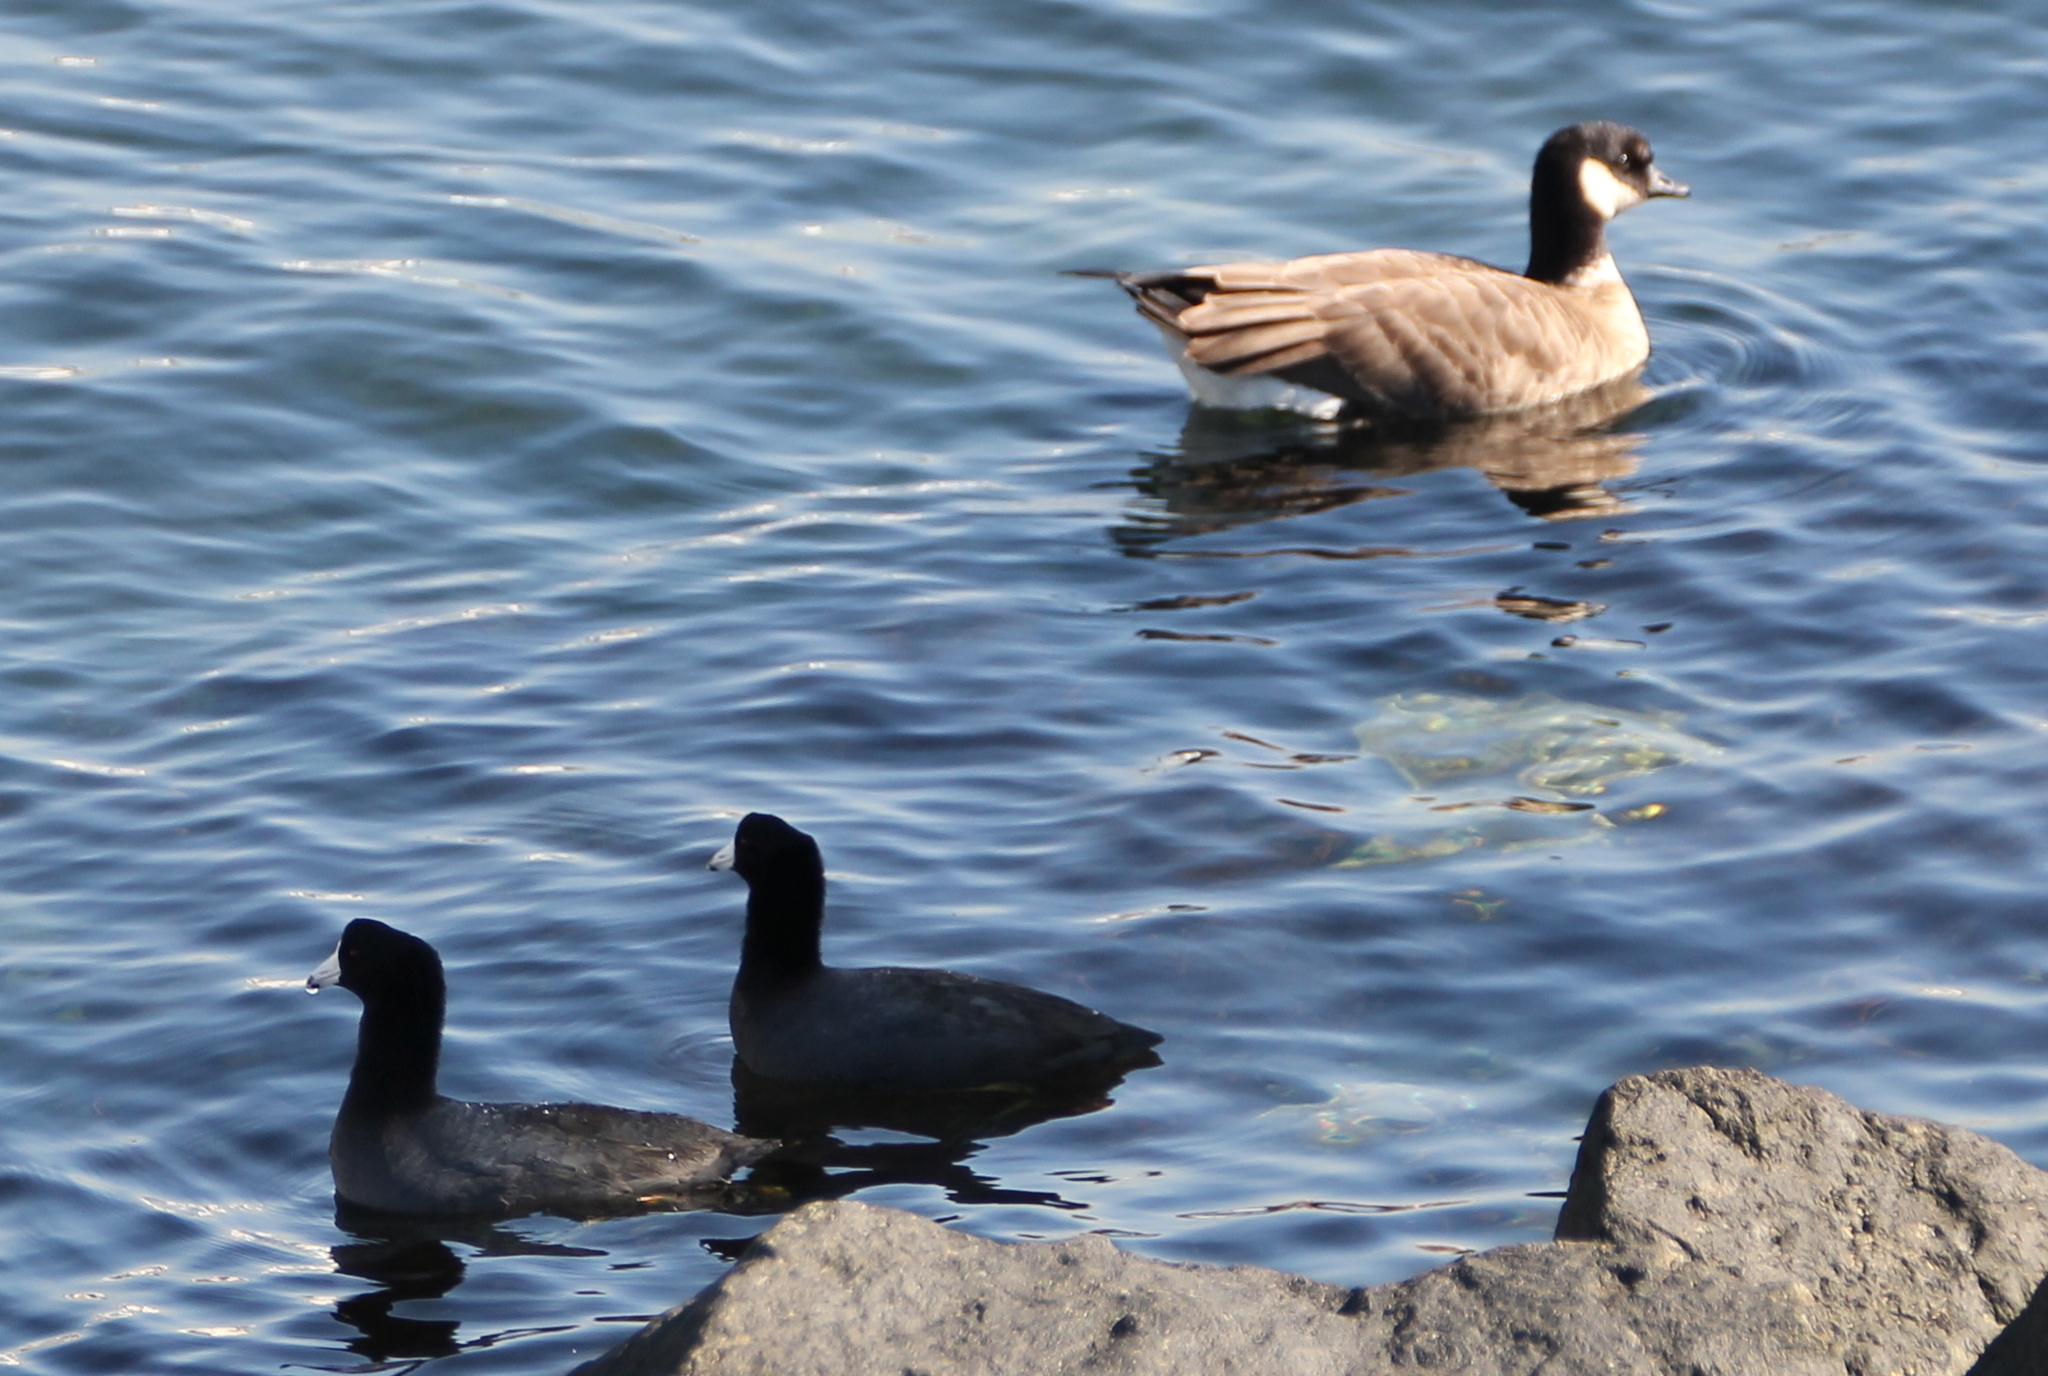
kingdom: Animalia
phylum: Chordata
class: Aves
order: Anseriformes
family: Anatidae
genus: Branta
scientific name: Branta hutchinsii
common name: Cackling goose
